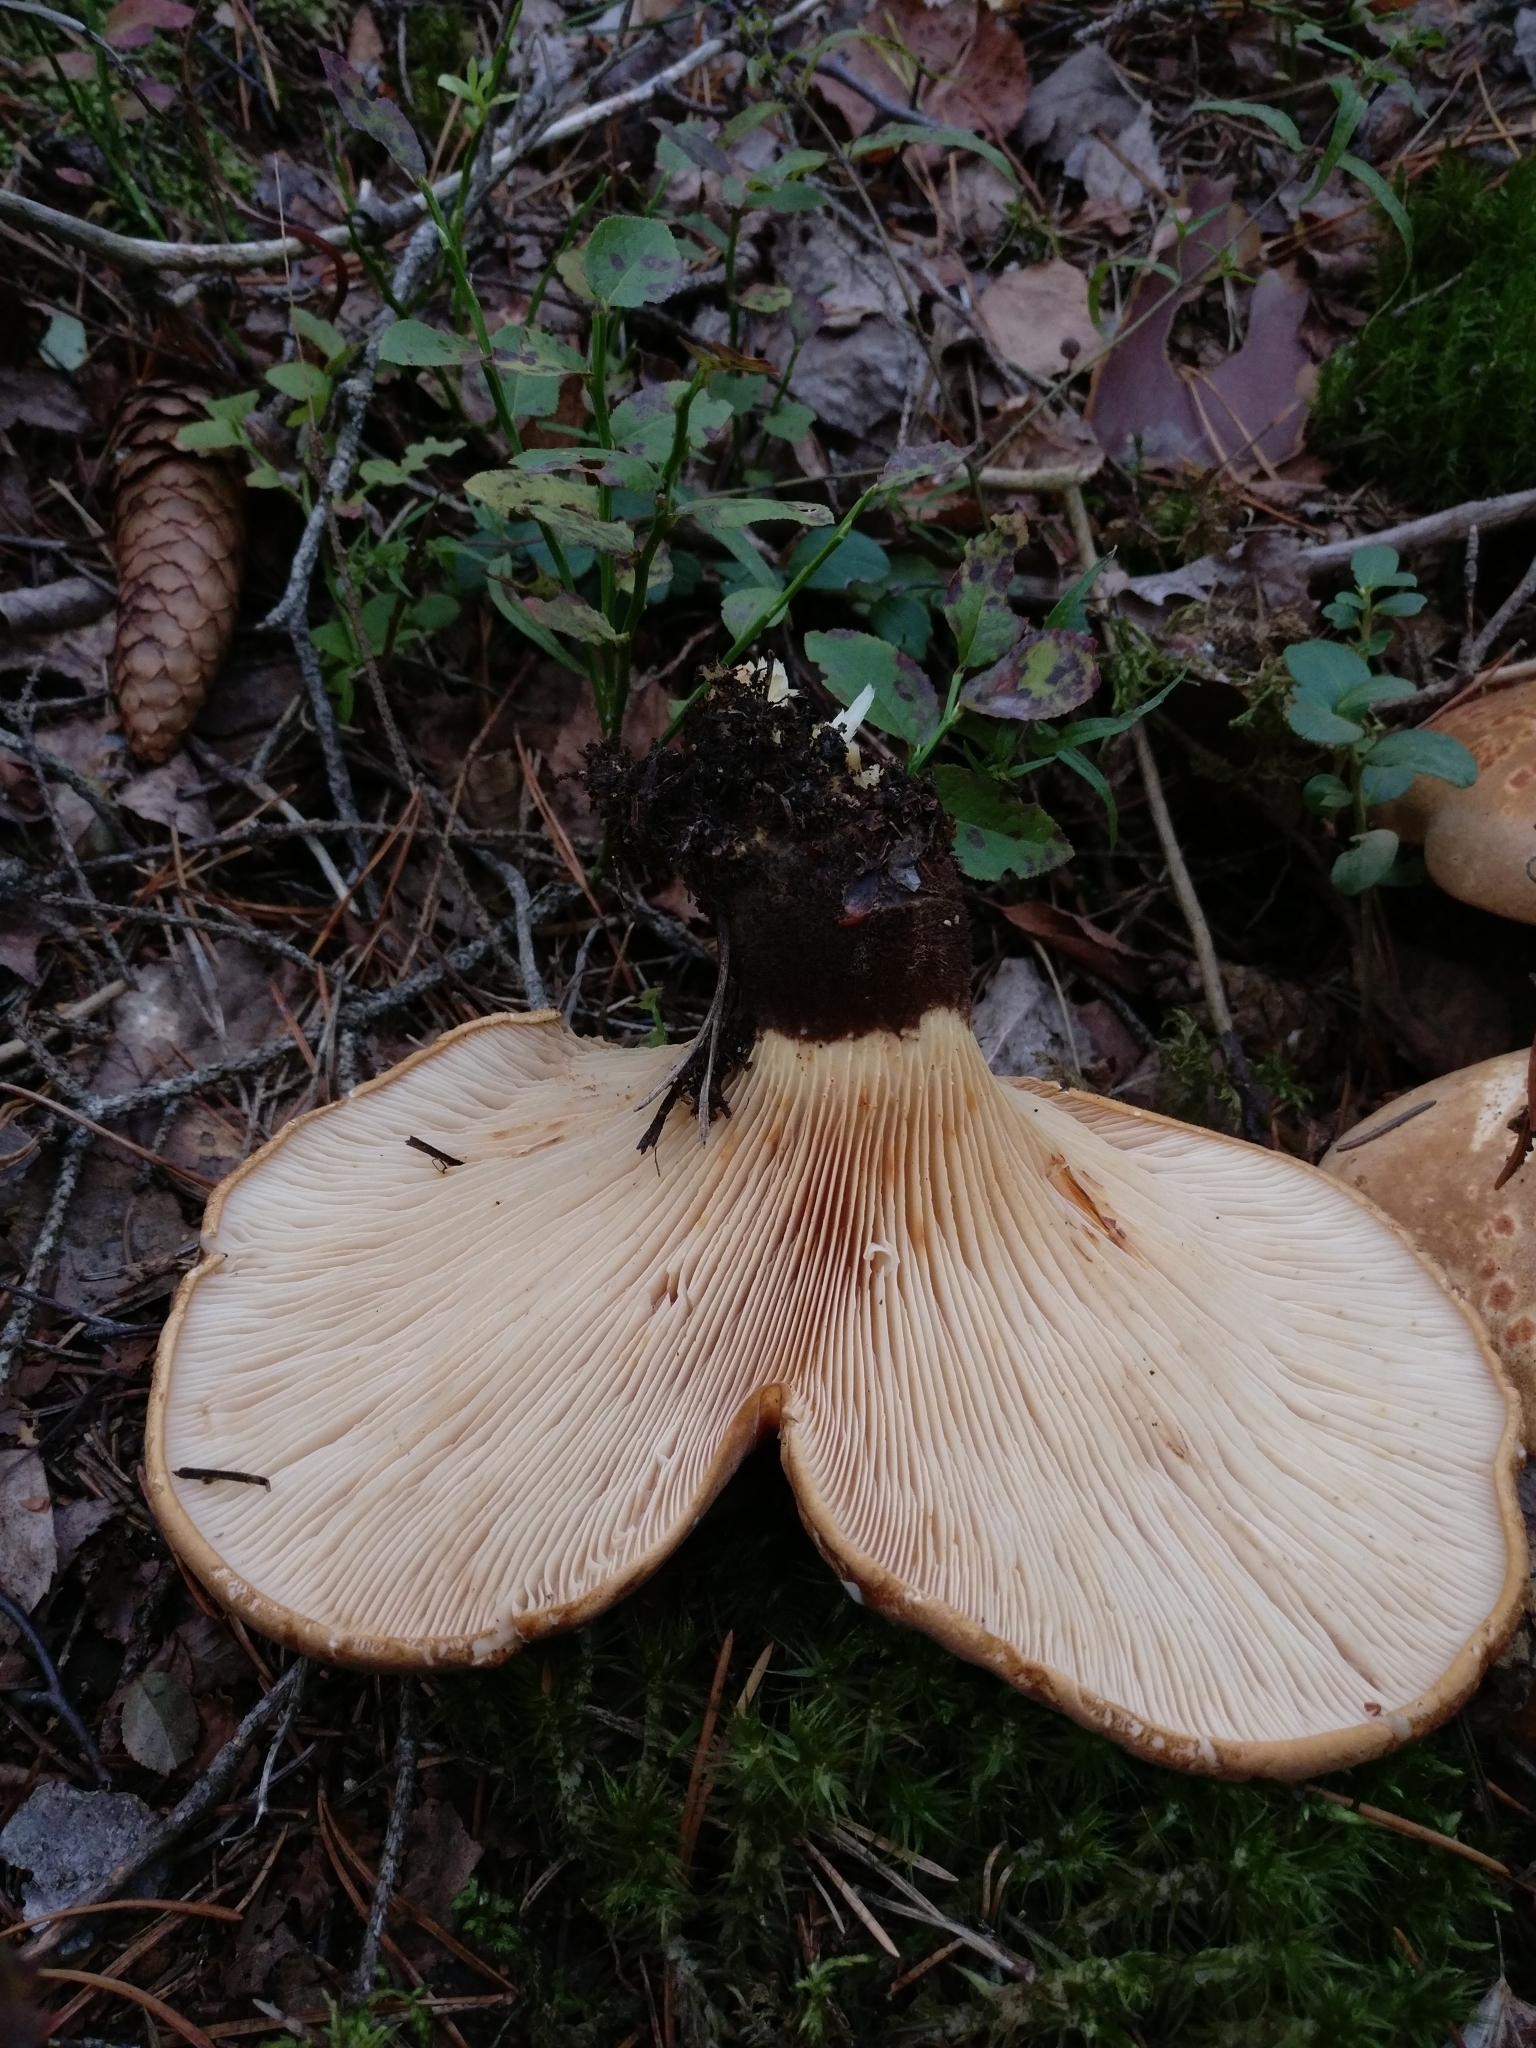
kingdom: Fungi
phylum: Basidiomycota
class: Agaricomycetes
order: Boletales
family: Tapinellaceae
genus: Tapinella
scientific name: Tapinella atrotomentosa
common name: Velvet rollrim
